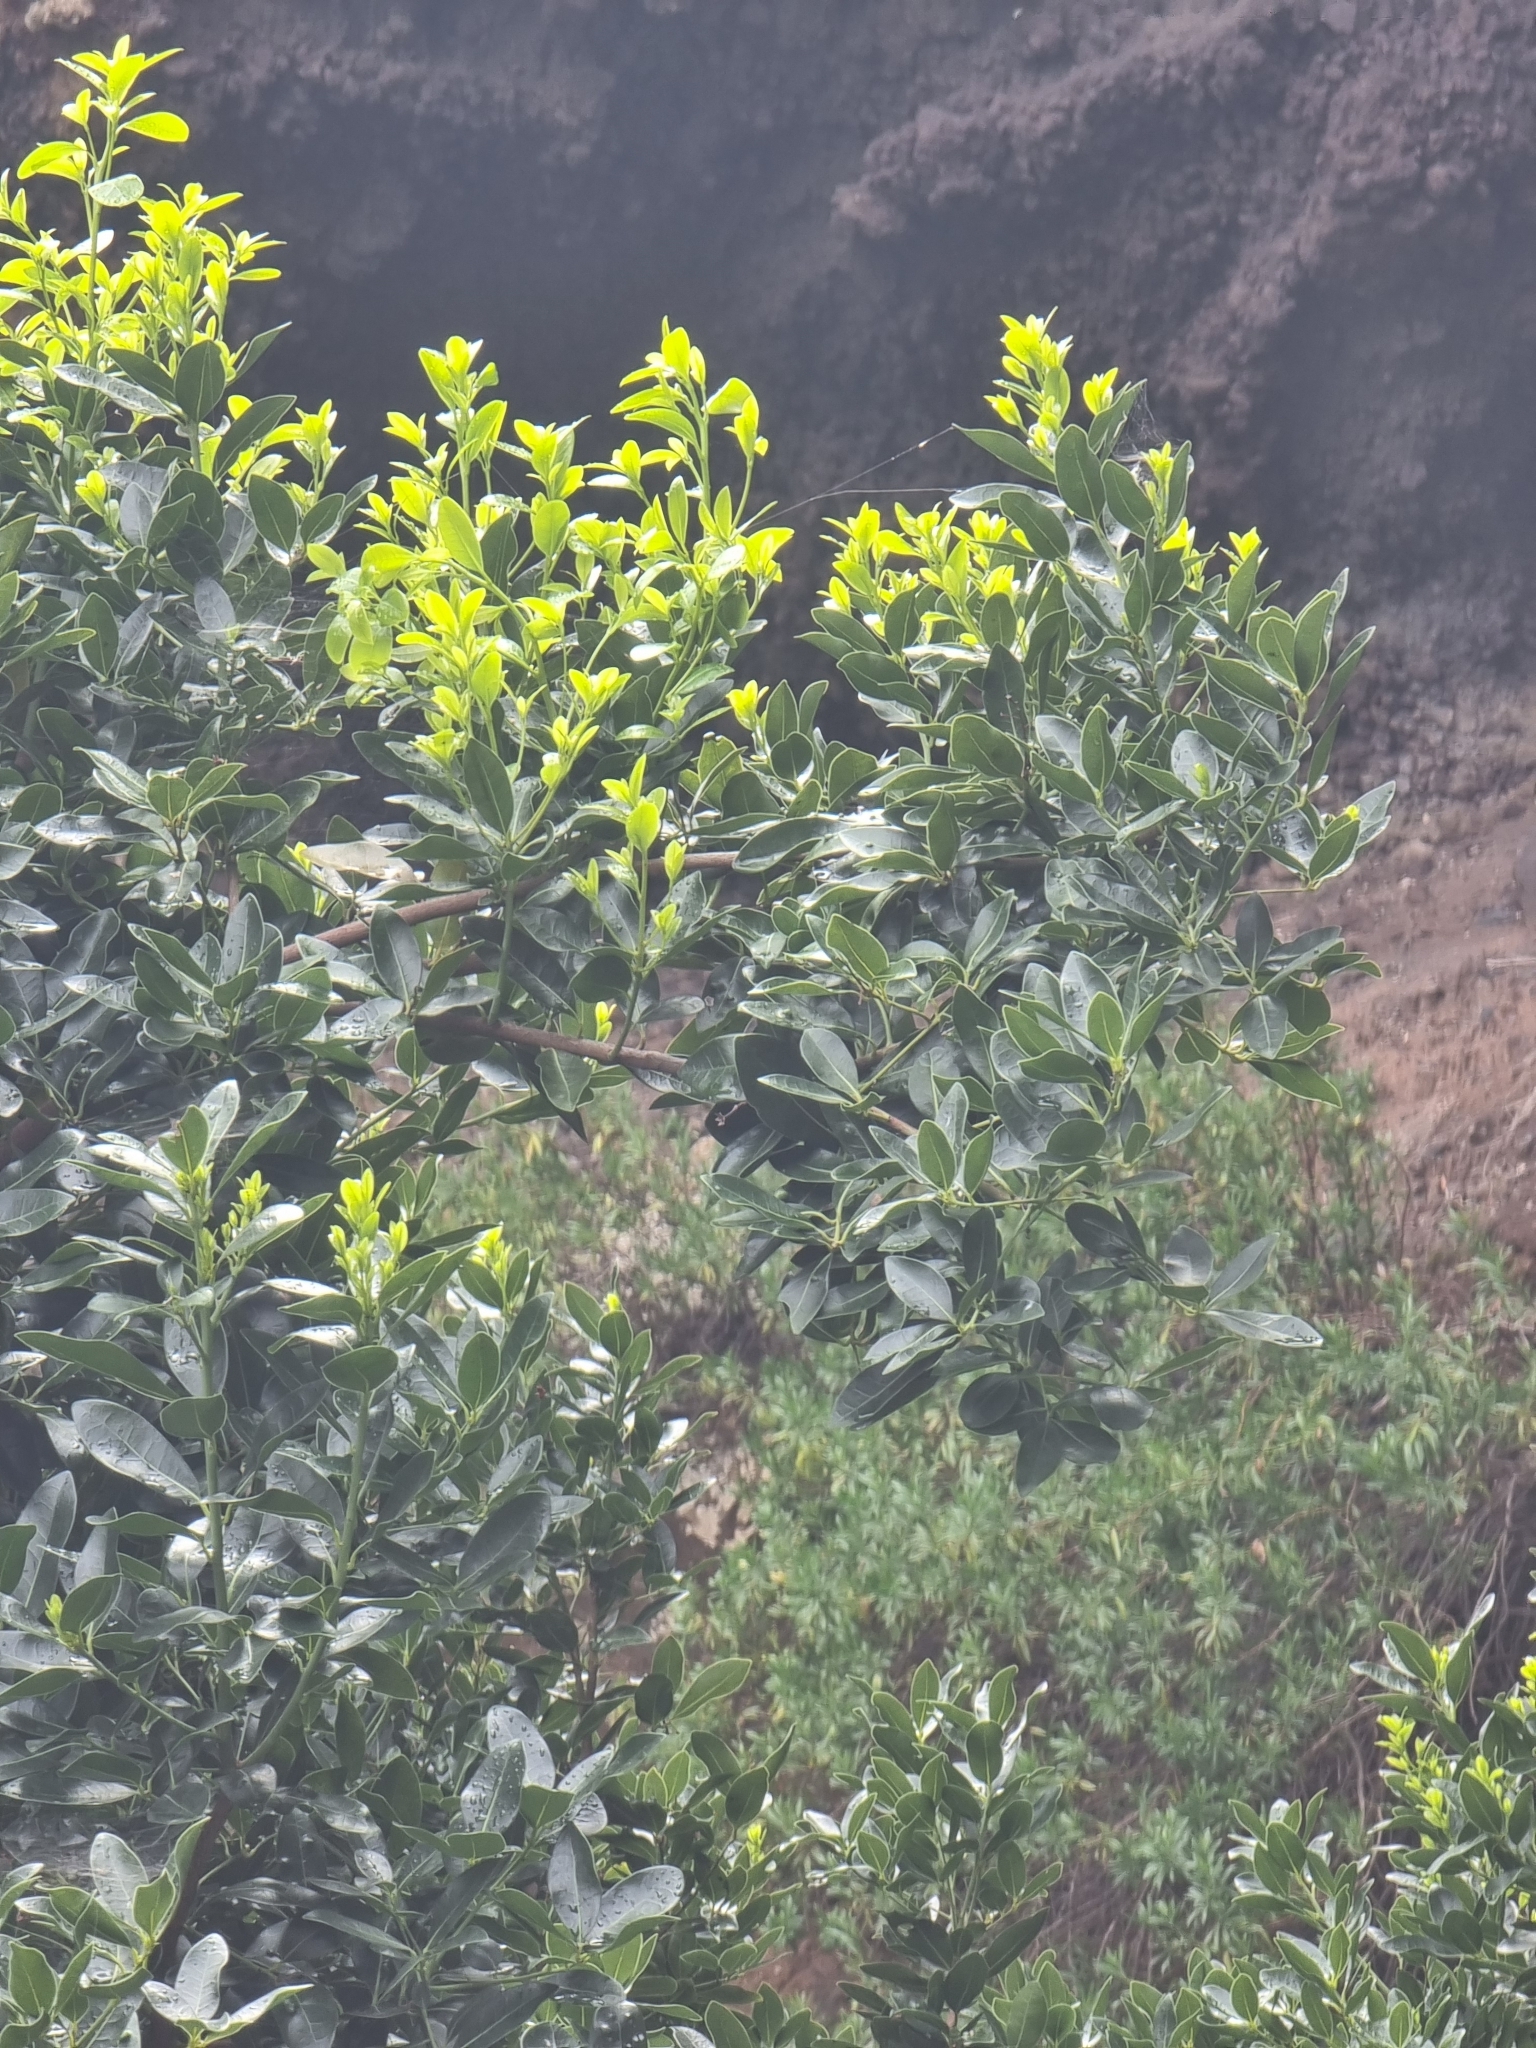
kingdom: Plantae
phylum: Tracheophyta
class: Magnoliopsida
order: Laurales
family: Lauraceae
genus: Apollonias
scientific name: Apollonias barbujana
